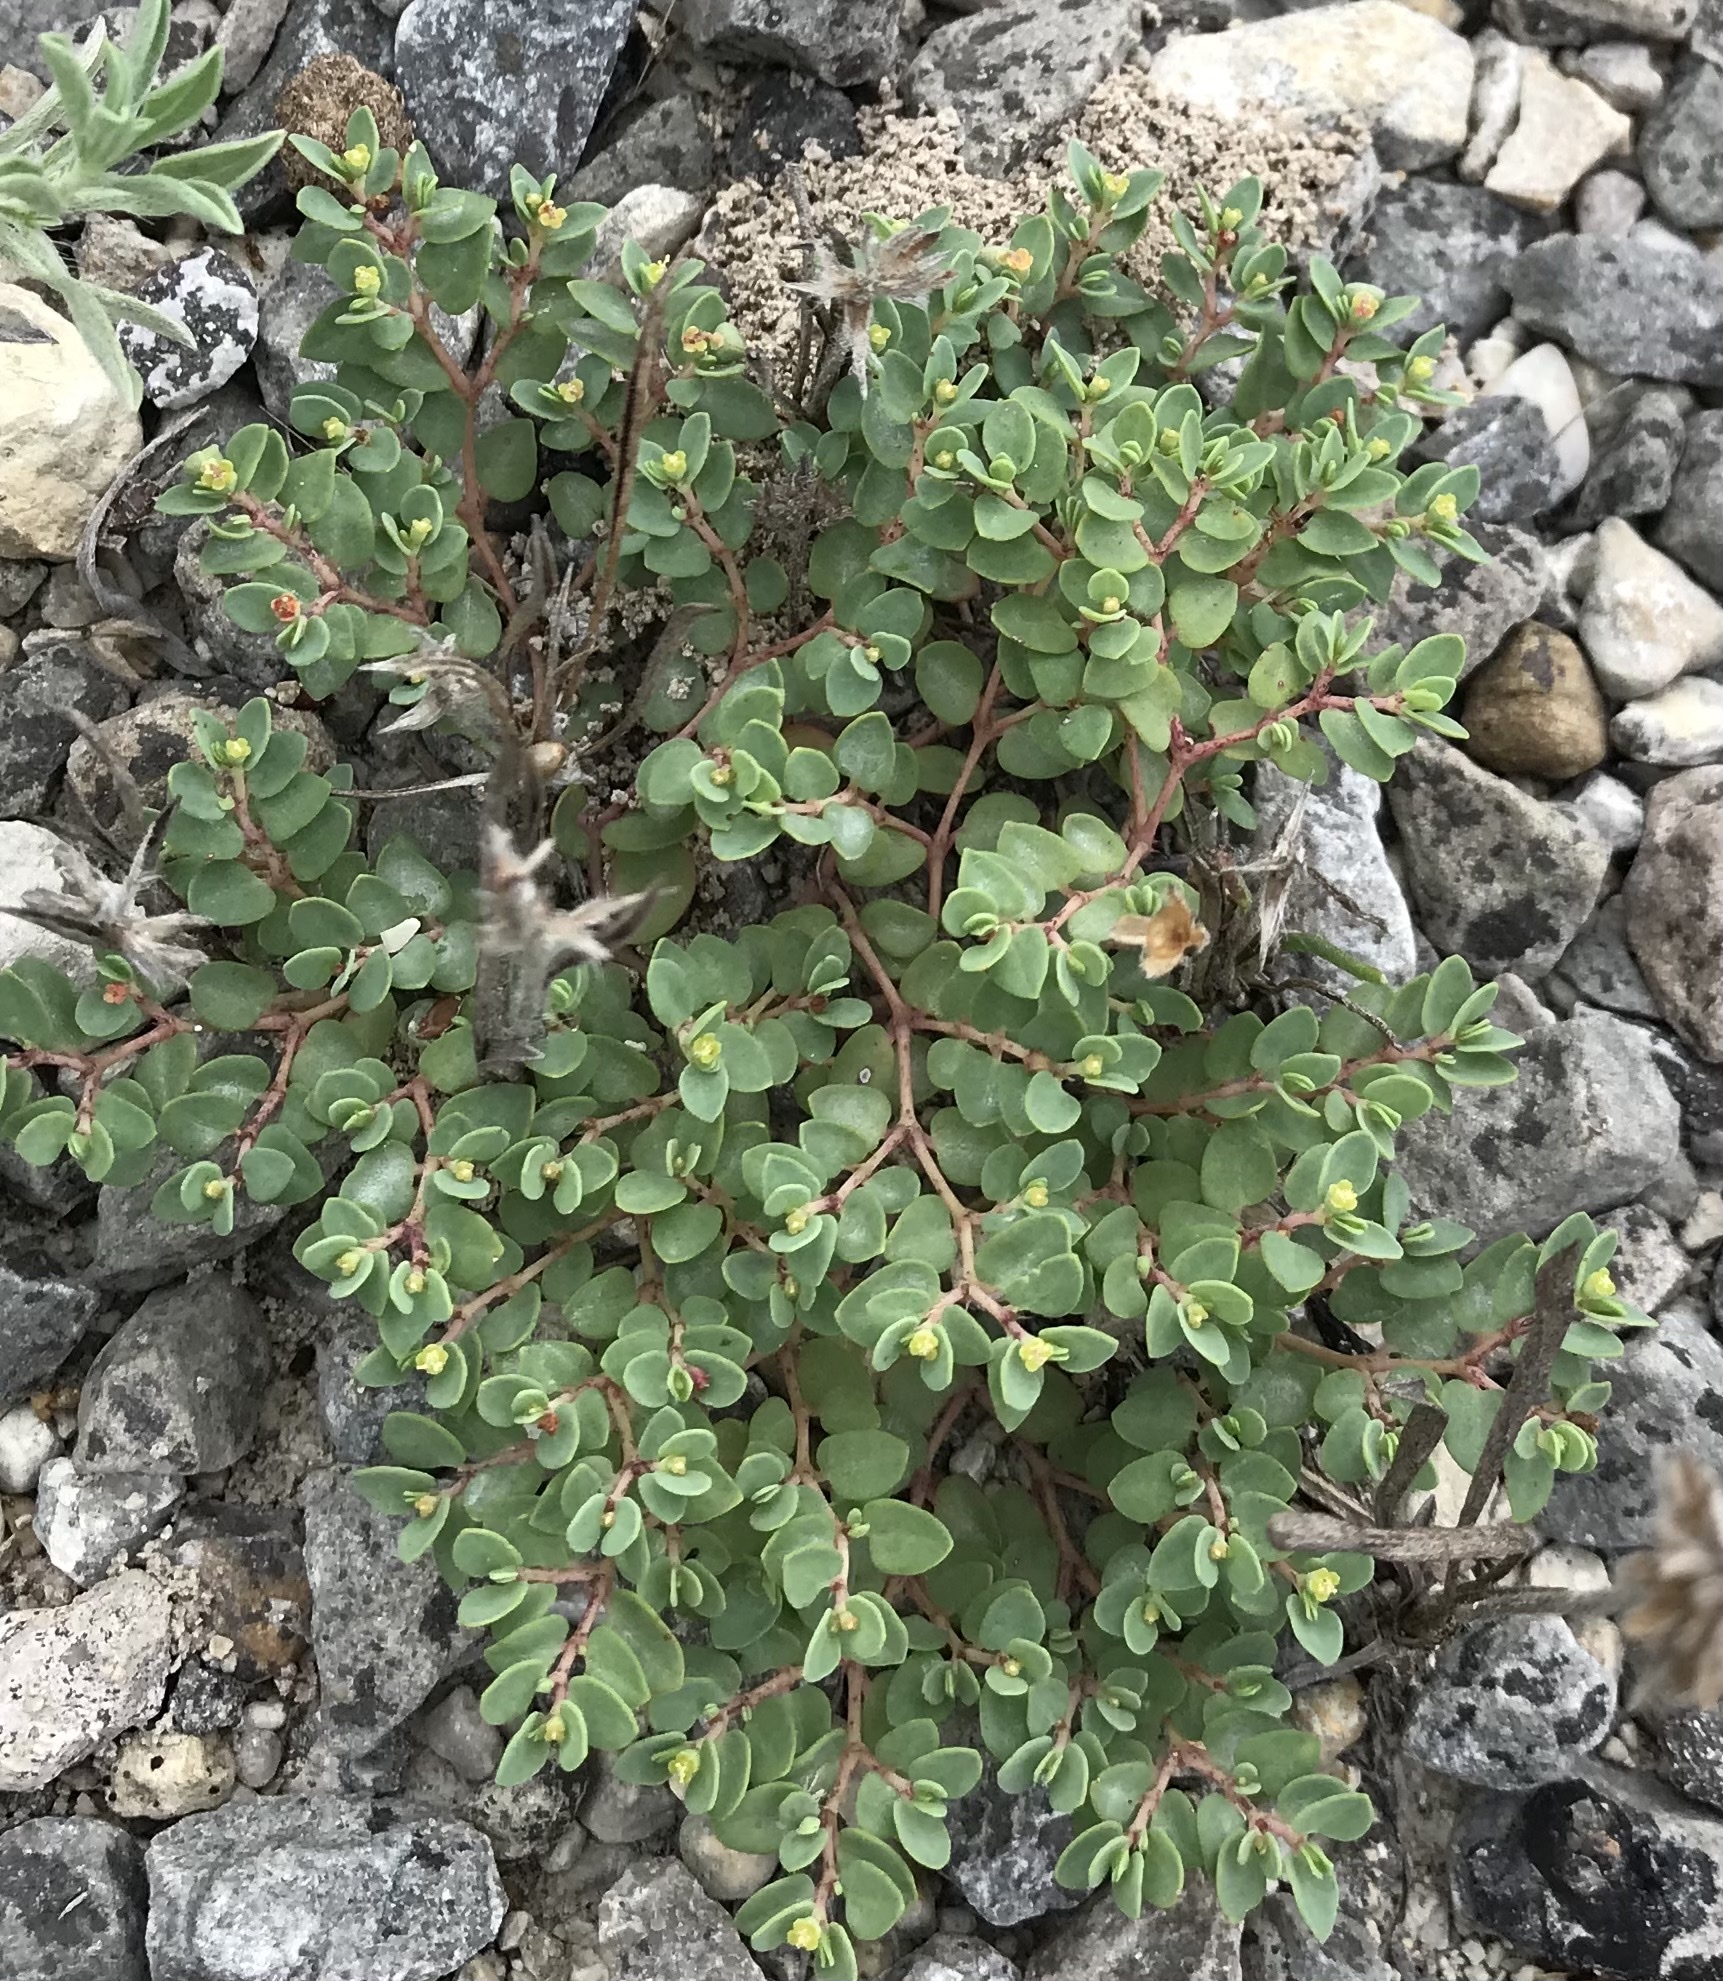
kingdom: Plantae
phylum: Tracheophyta
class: Magnoliopsida
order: Malpighiales
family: Euphorbiaceae
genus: Euphorbia
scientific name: Euphorbia fendleri
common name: Fendler's euphorbia
